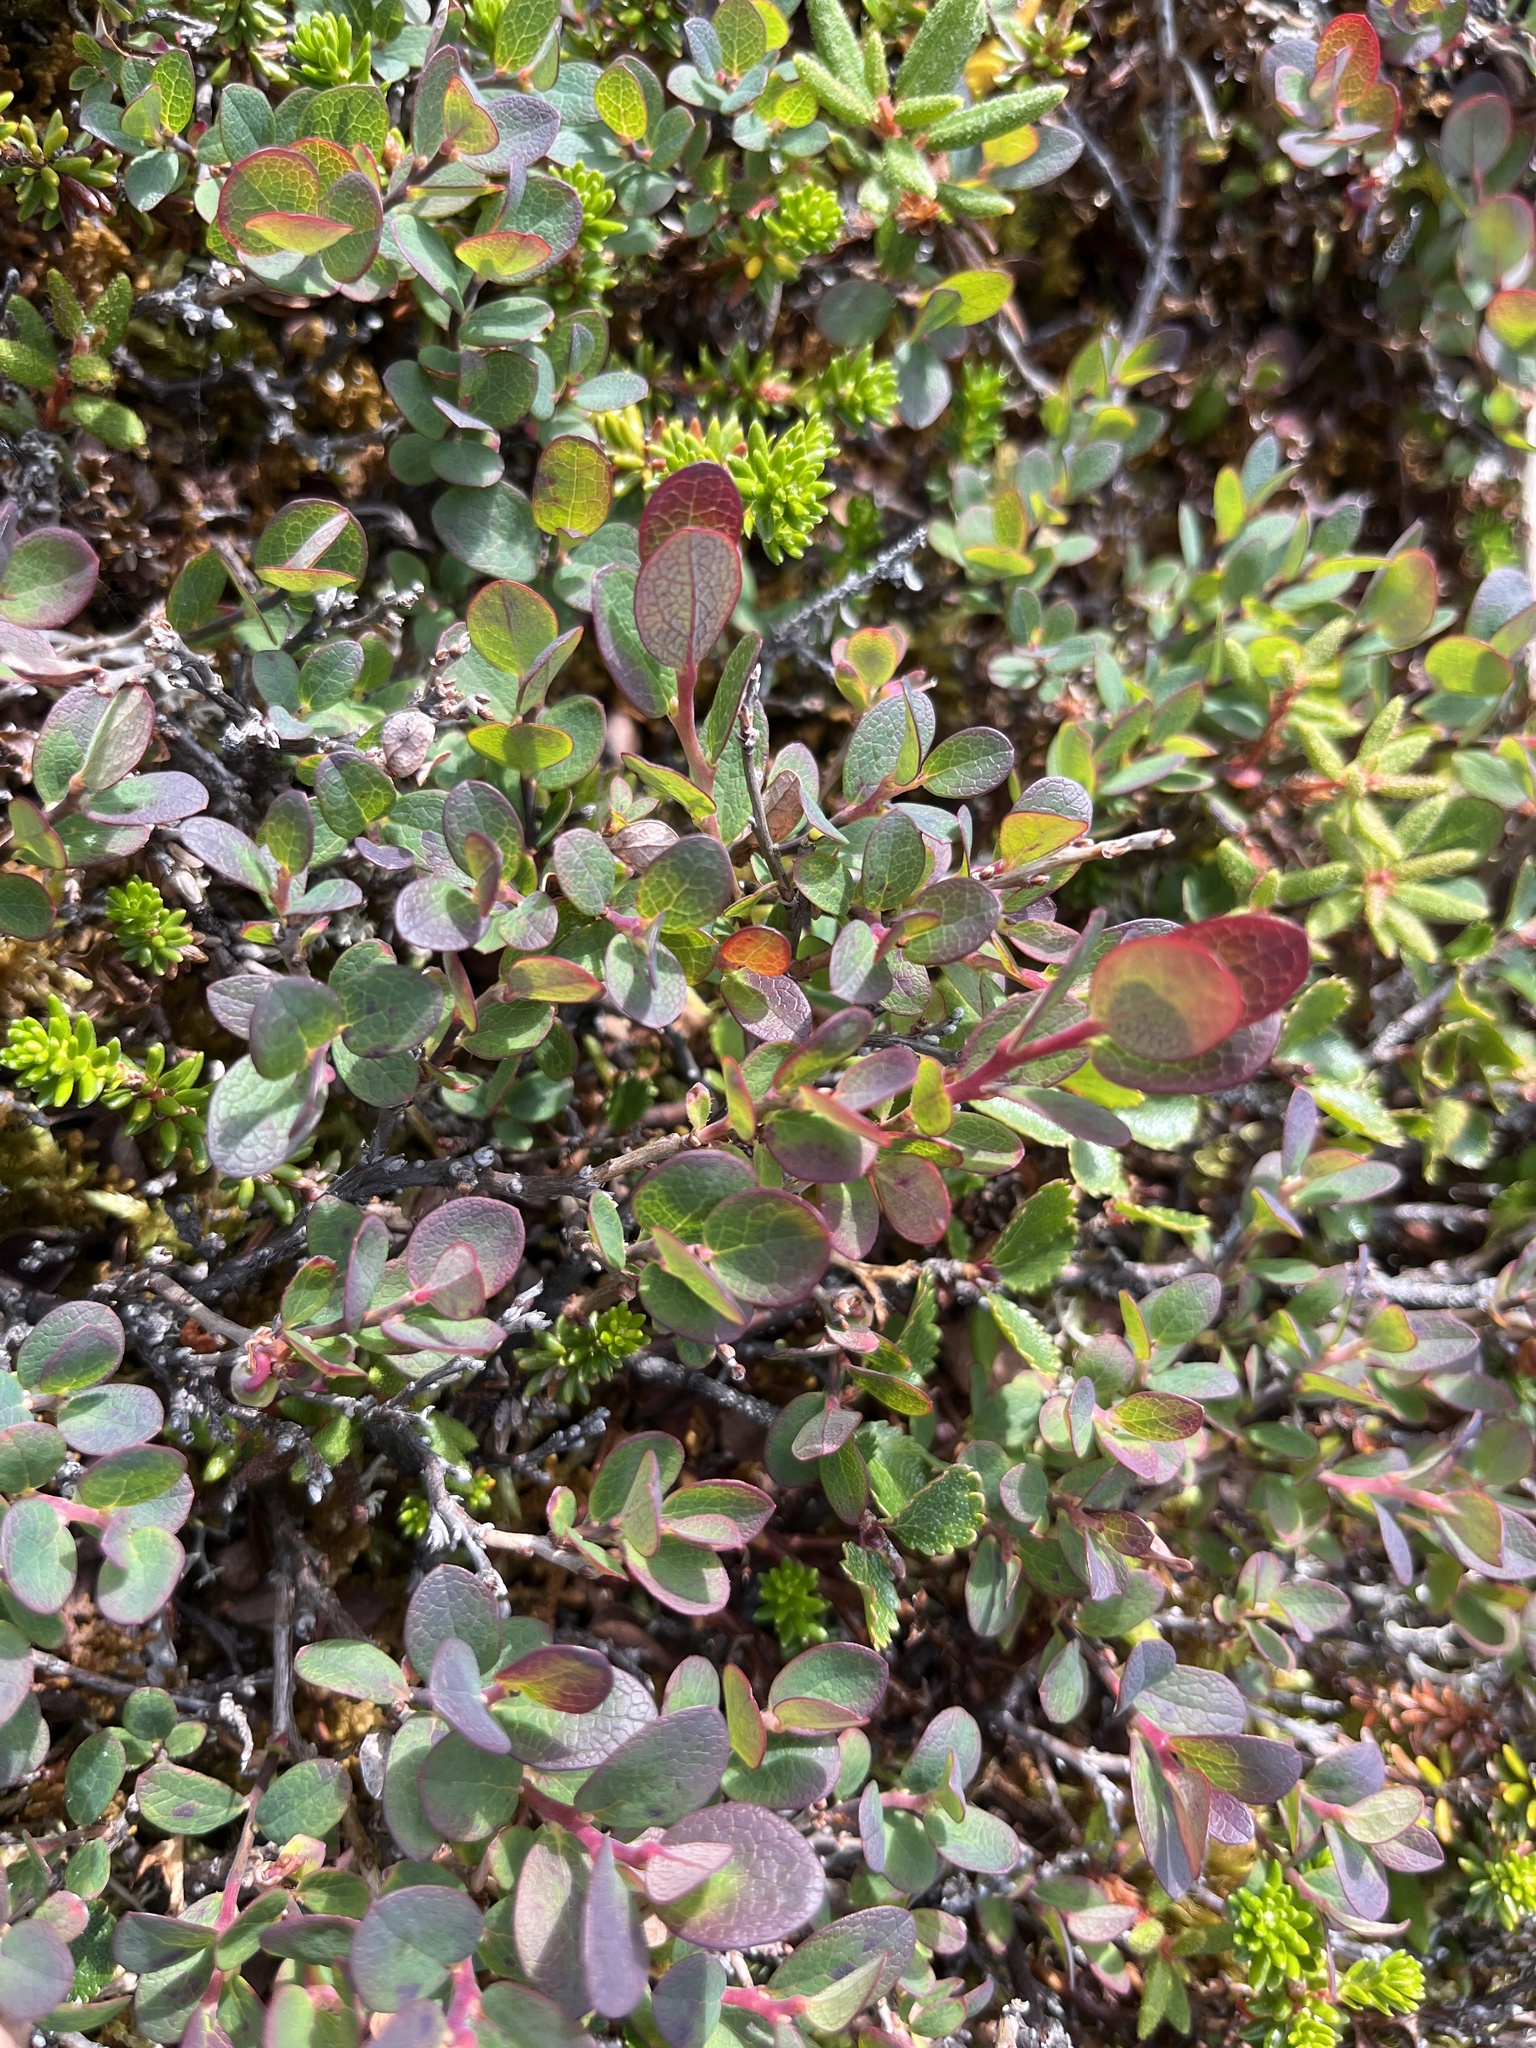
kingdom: Plantae
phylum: Tracheophyta
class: Magnoliopsida
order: Ericales
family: Ericaceae
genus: Vaccinium
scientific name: Vaccinium uliginosum
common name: Bog bilberry
